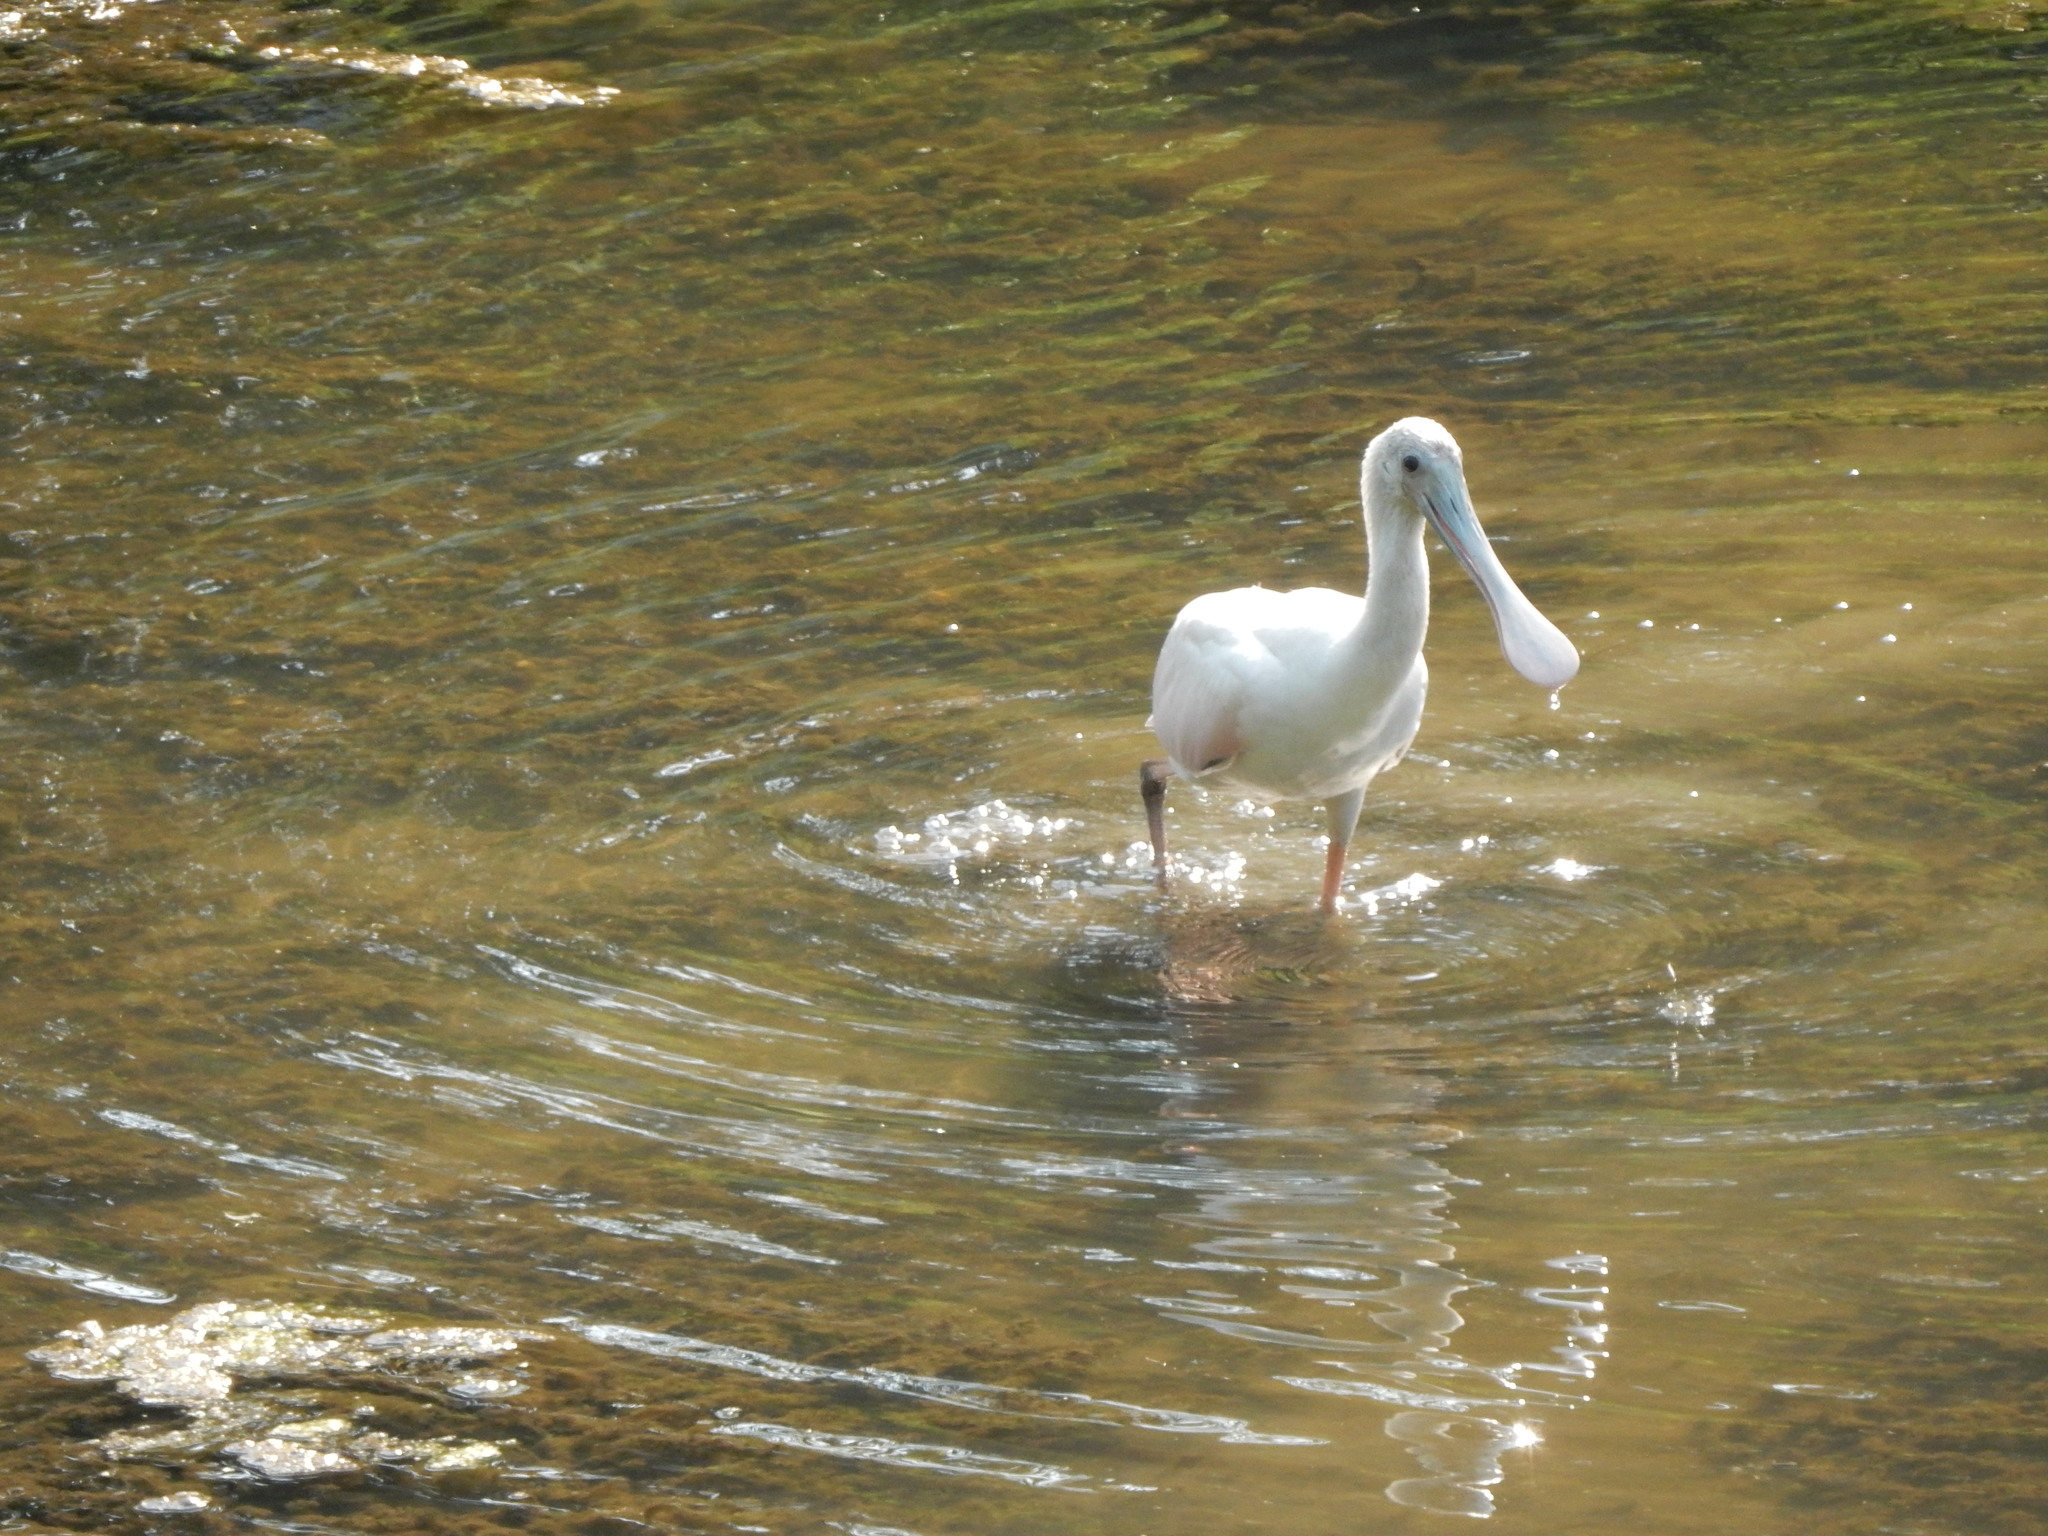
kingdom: Animalia
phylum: Chordata
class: Aves
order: Pelecaniformes
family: Threskiornithidae
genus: Platalea
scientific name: Platalea ajaja
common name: Roseate spoonbill
